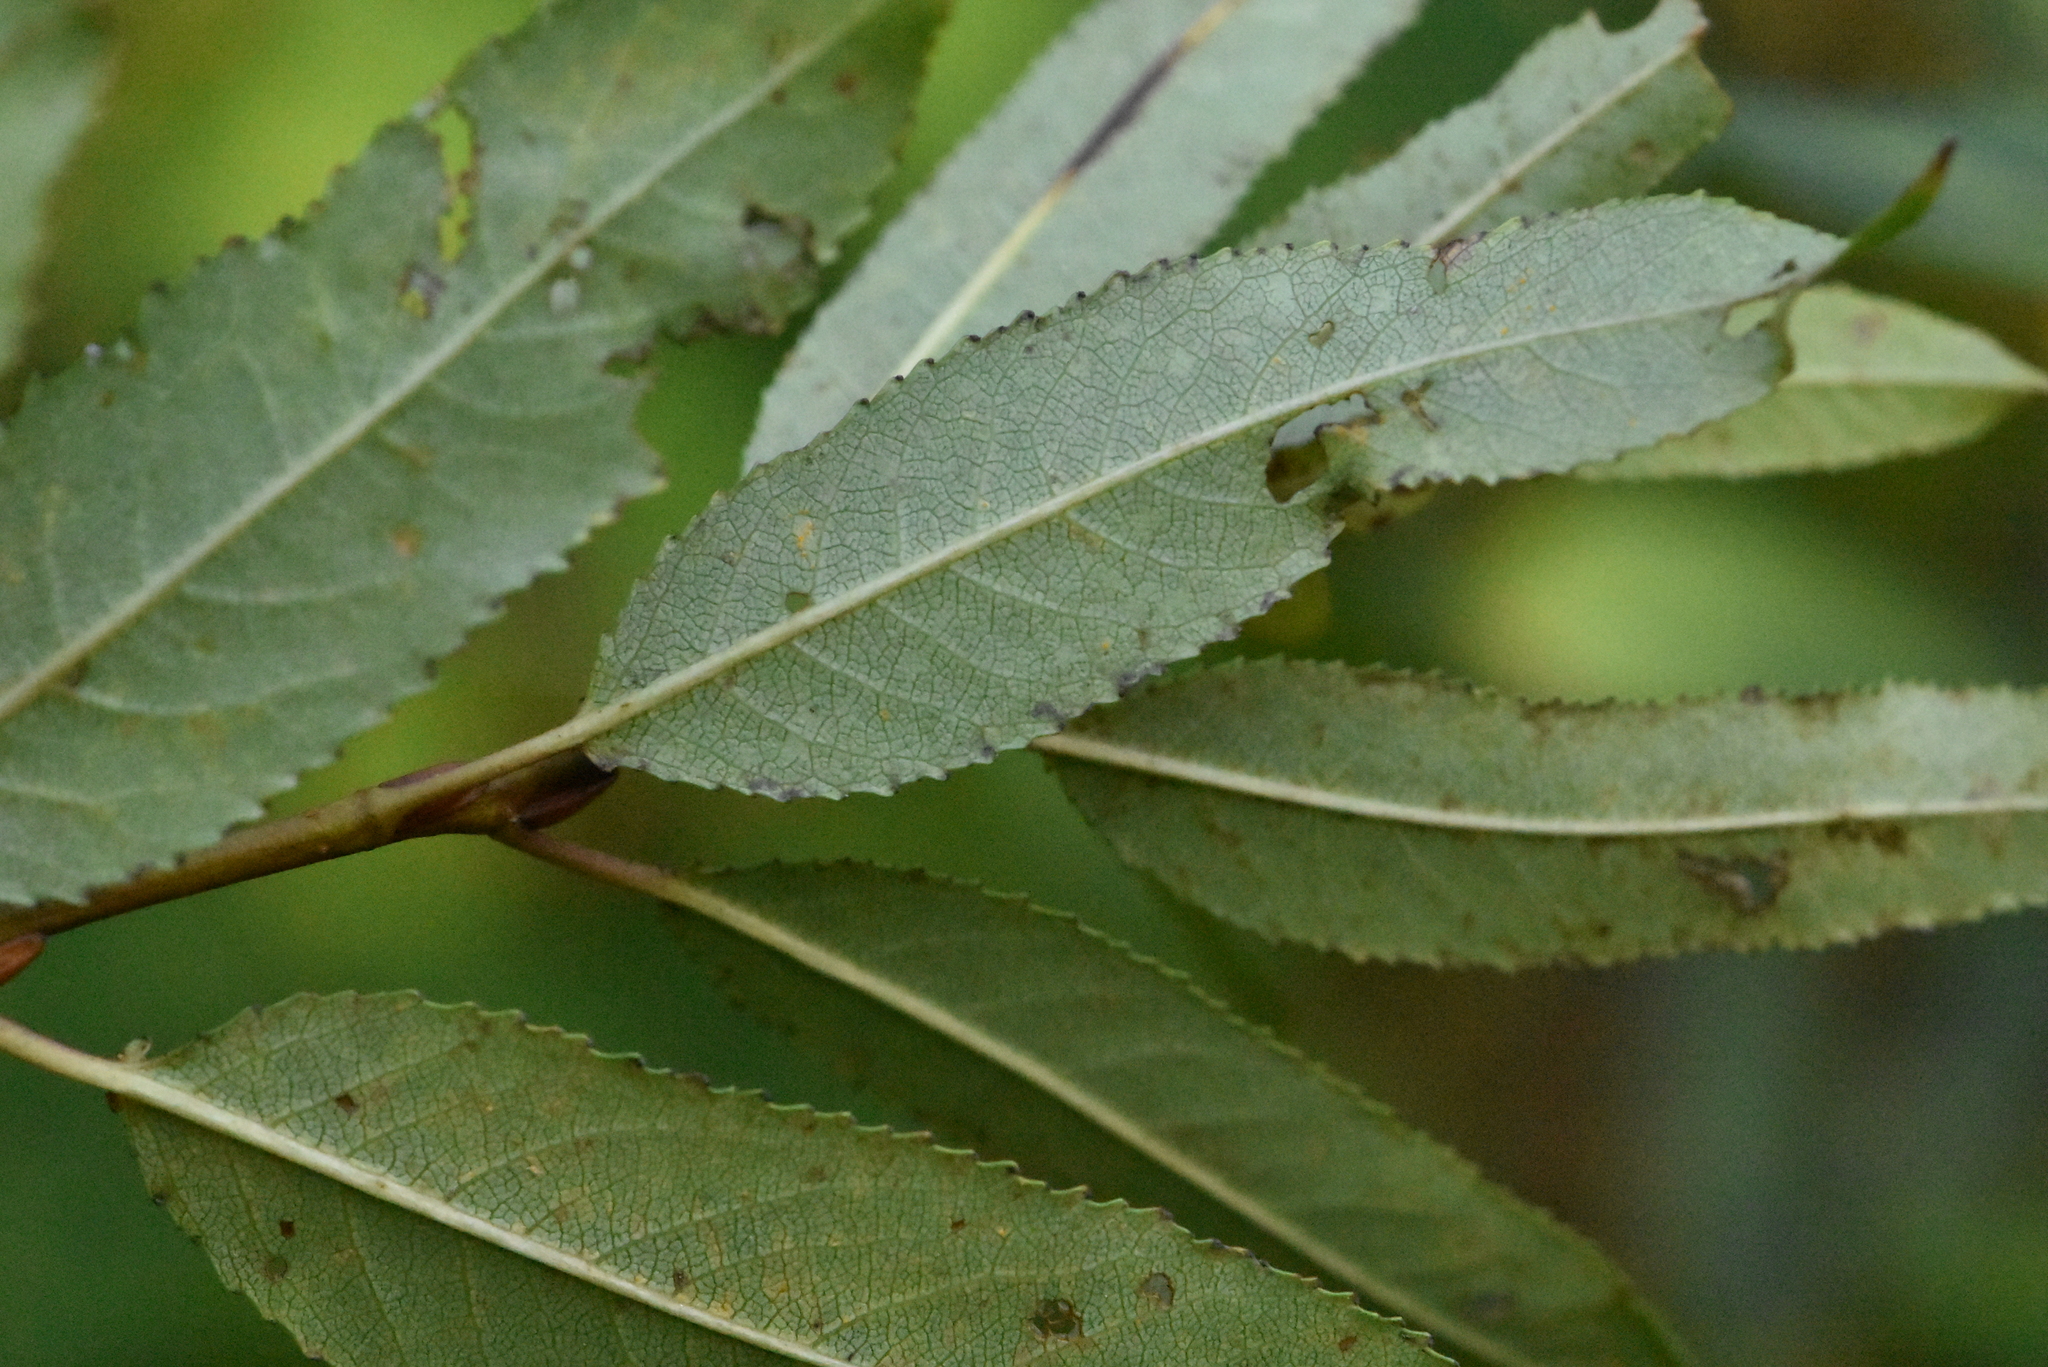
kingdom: Plantae
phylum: Tracheophyta
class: Magnoliopsida
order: Malpighiales
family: Salicaceae
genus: Salix
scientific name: Salix triandra
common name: Almond willow
